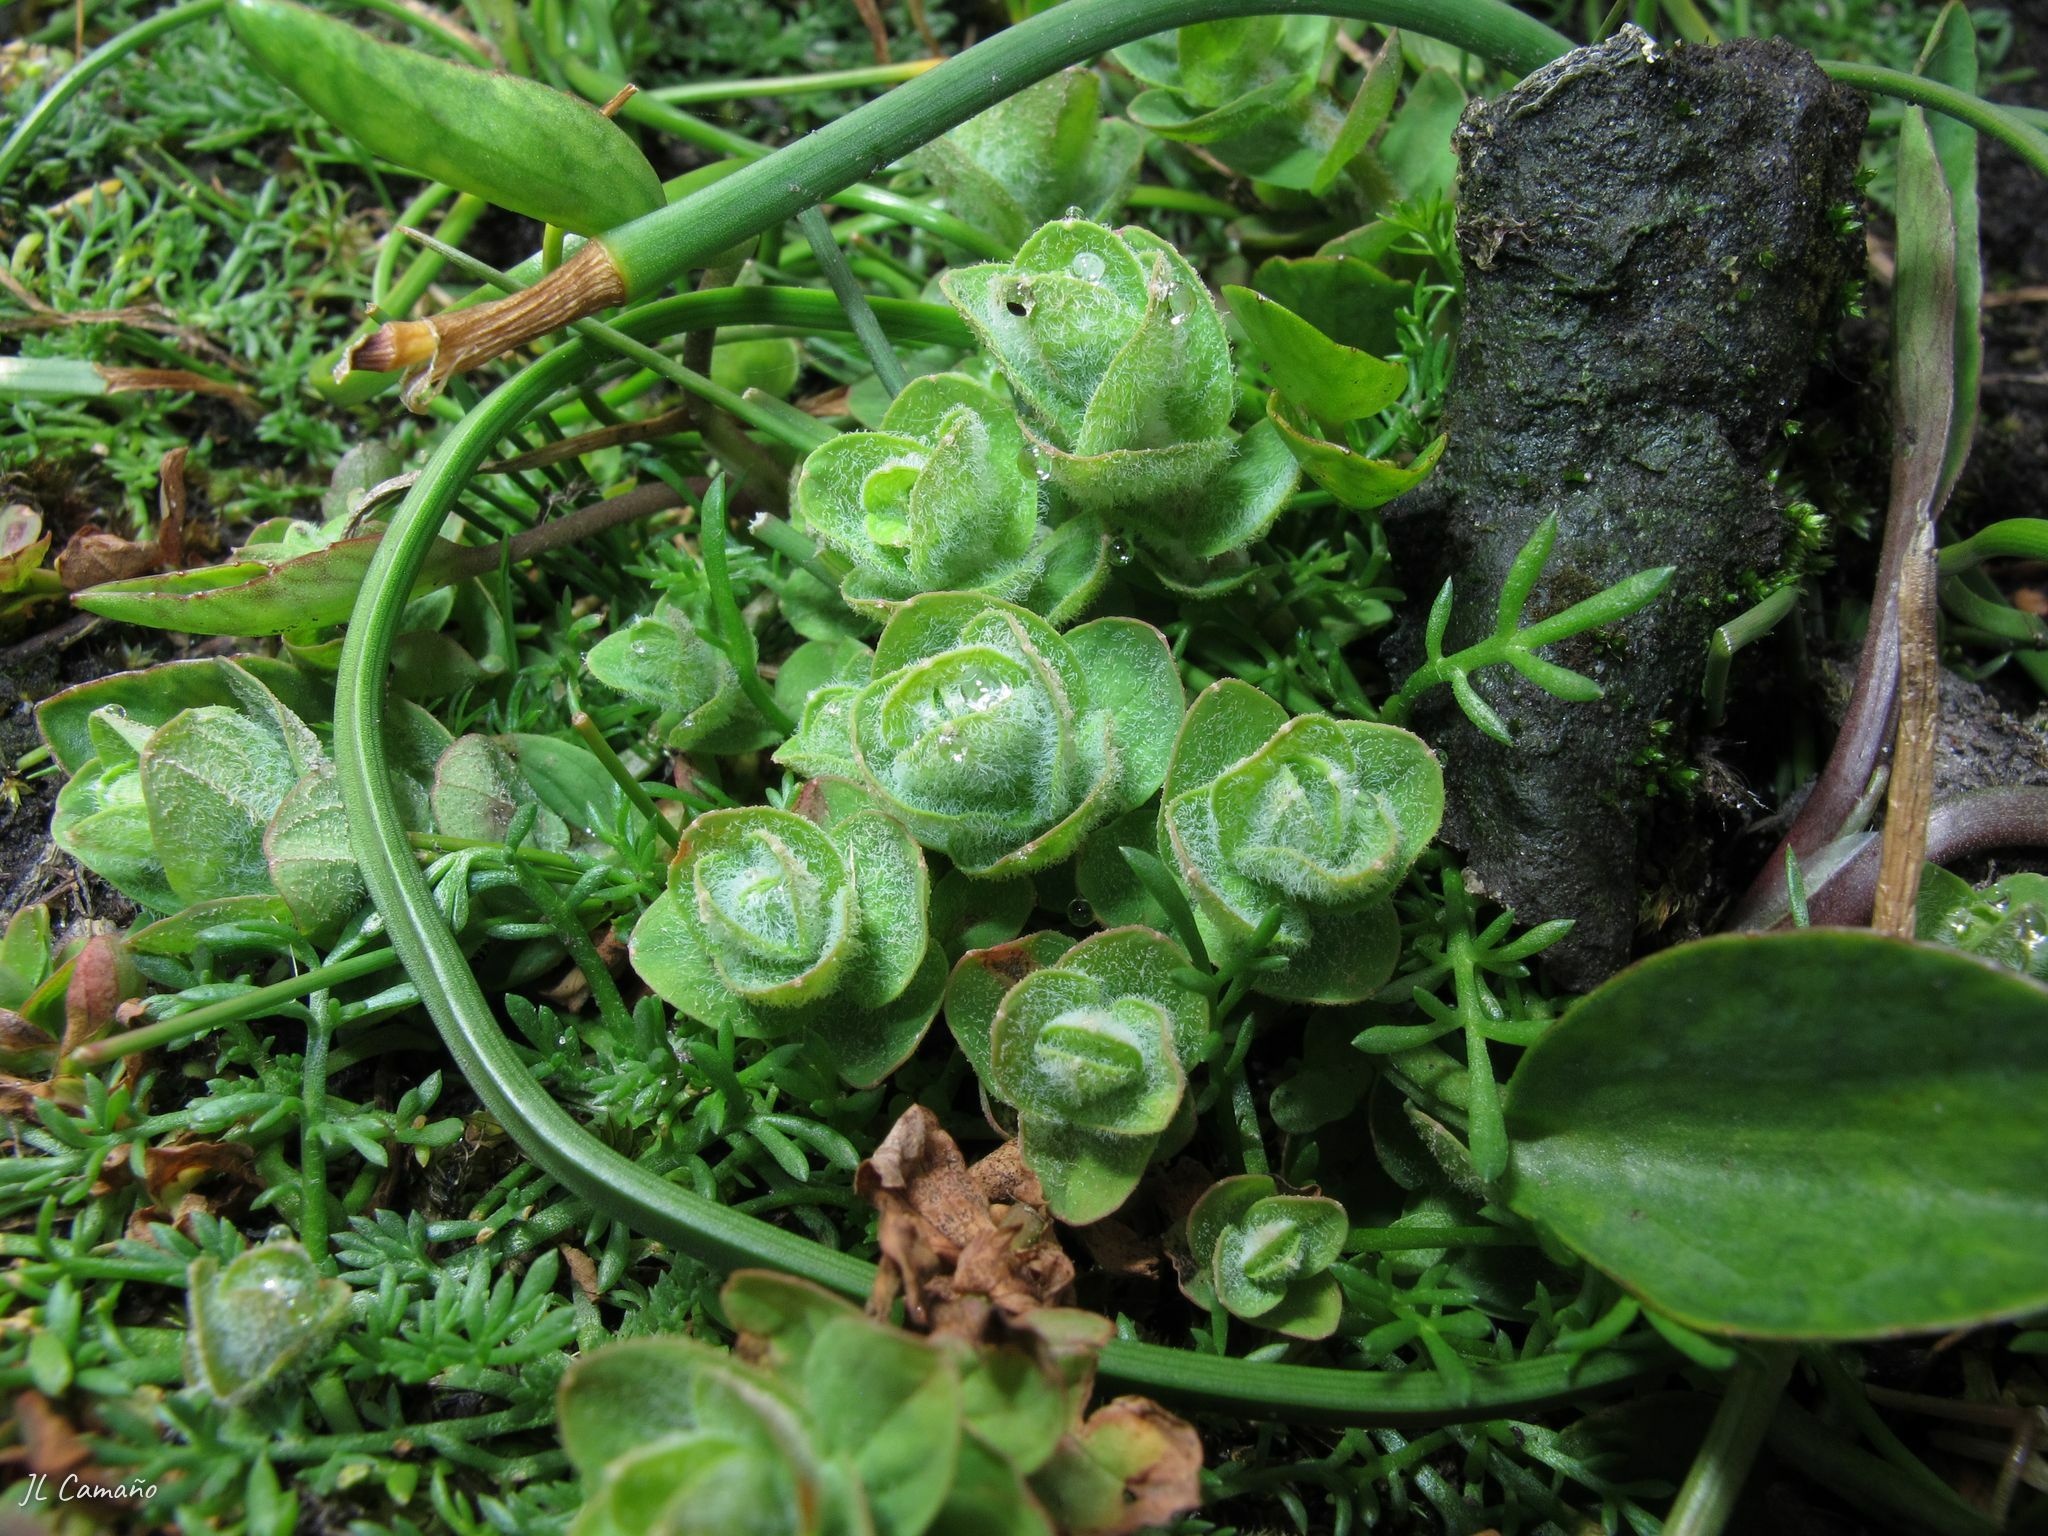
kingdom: Plantae
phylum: Tracheophyta
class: Magnoliopsida
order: Malpighiales
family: Hypericaceae
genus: Hypericum
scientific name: Hypericum elodes
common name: Marsh st. john's-wort
